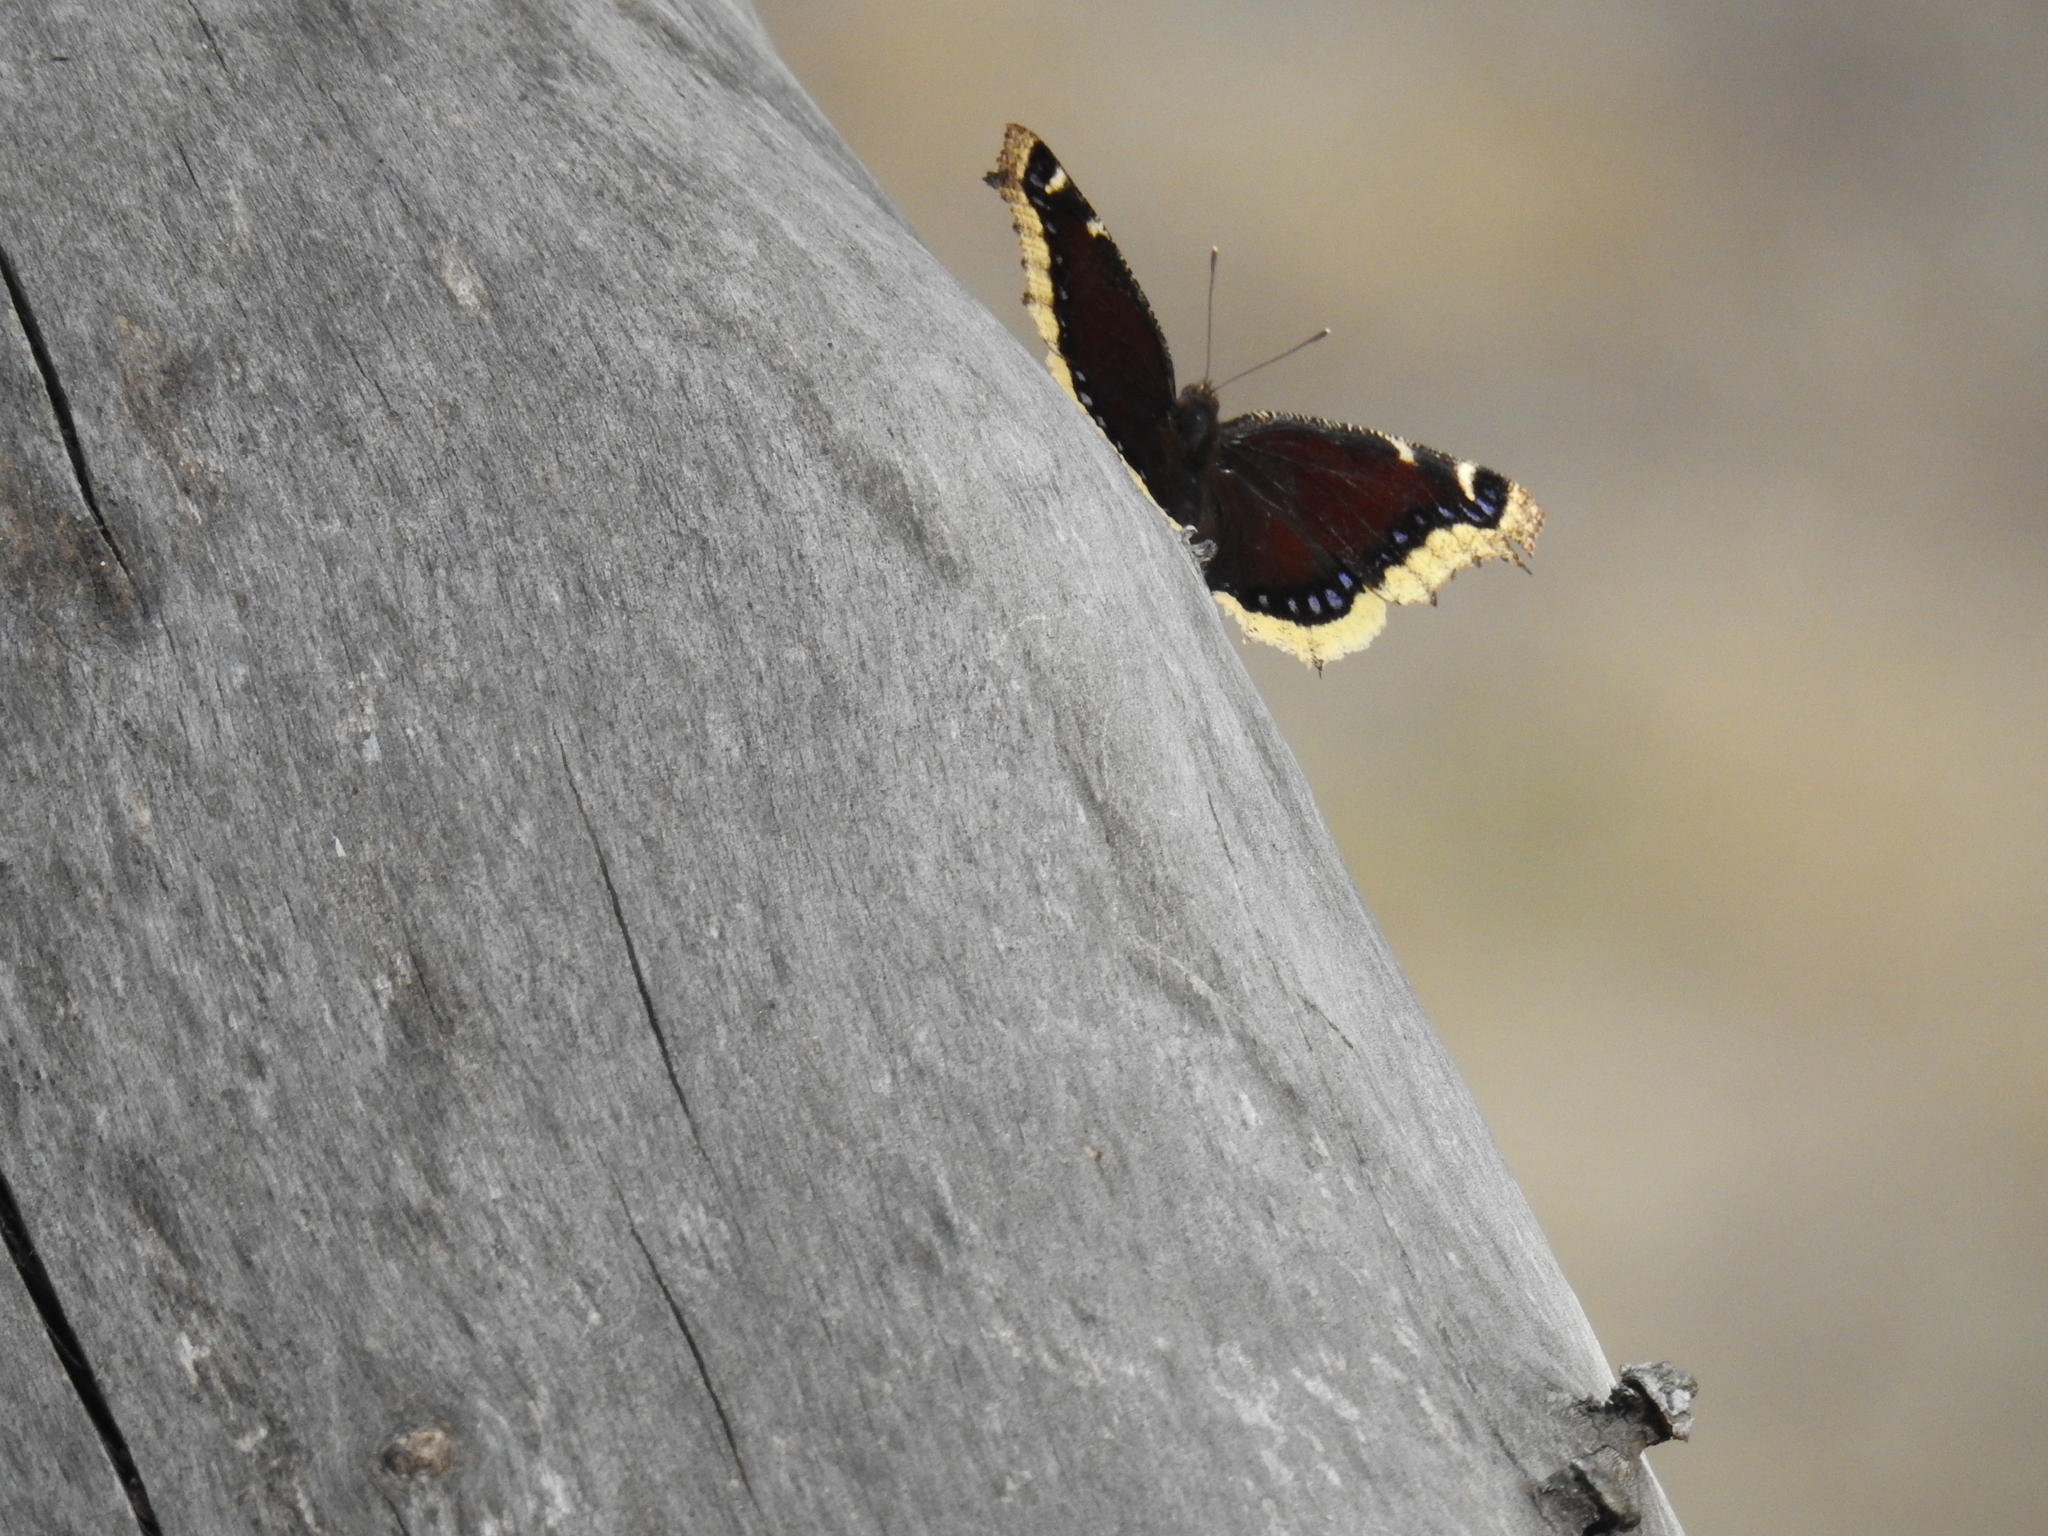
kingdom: Animalia
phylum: Arthropoda
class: Insecta
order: Lepidoptera
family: Nymphalidae
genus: Nymphalis
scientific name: Nymphalis antiopa
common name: Camberwell beauty
